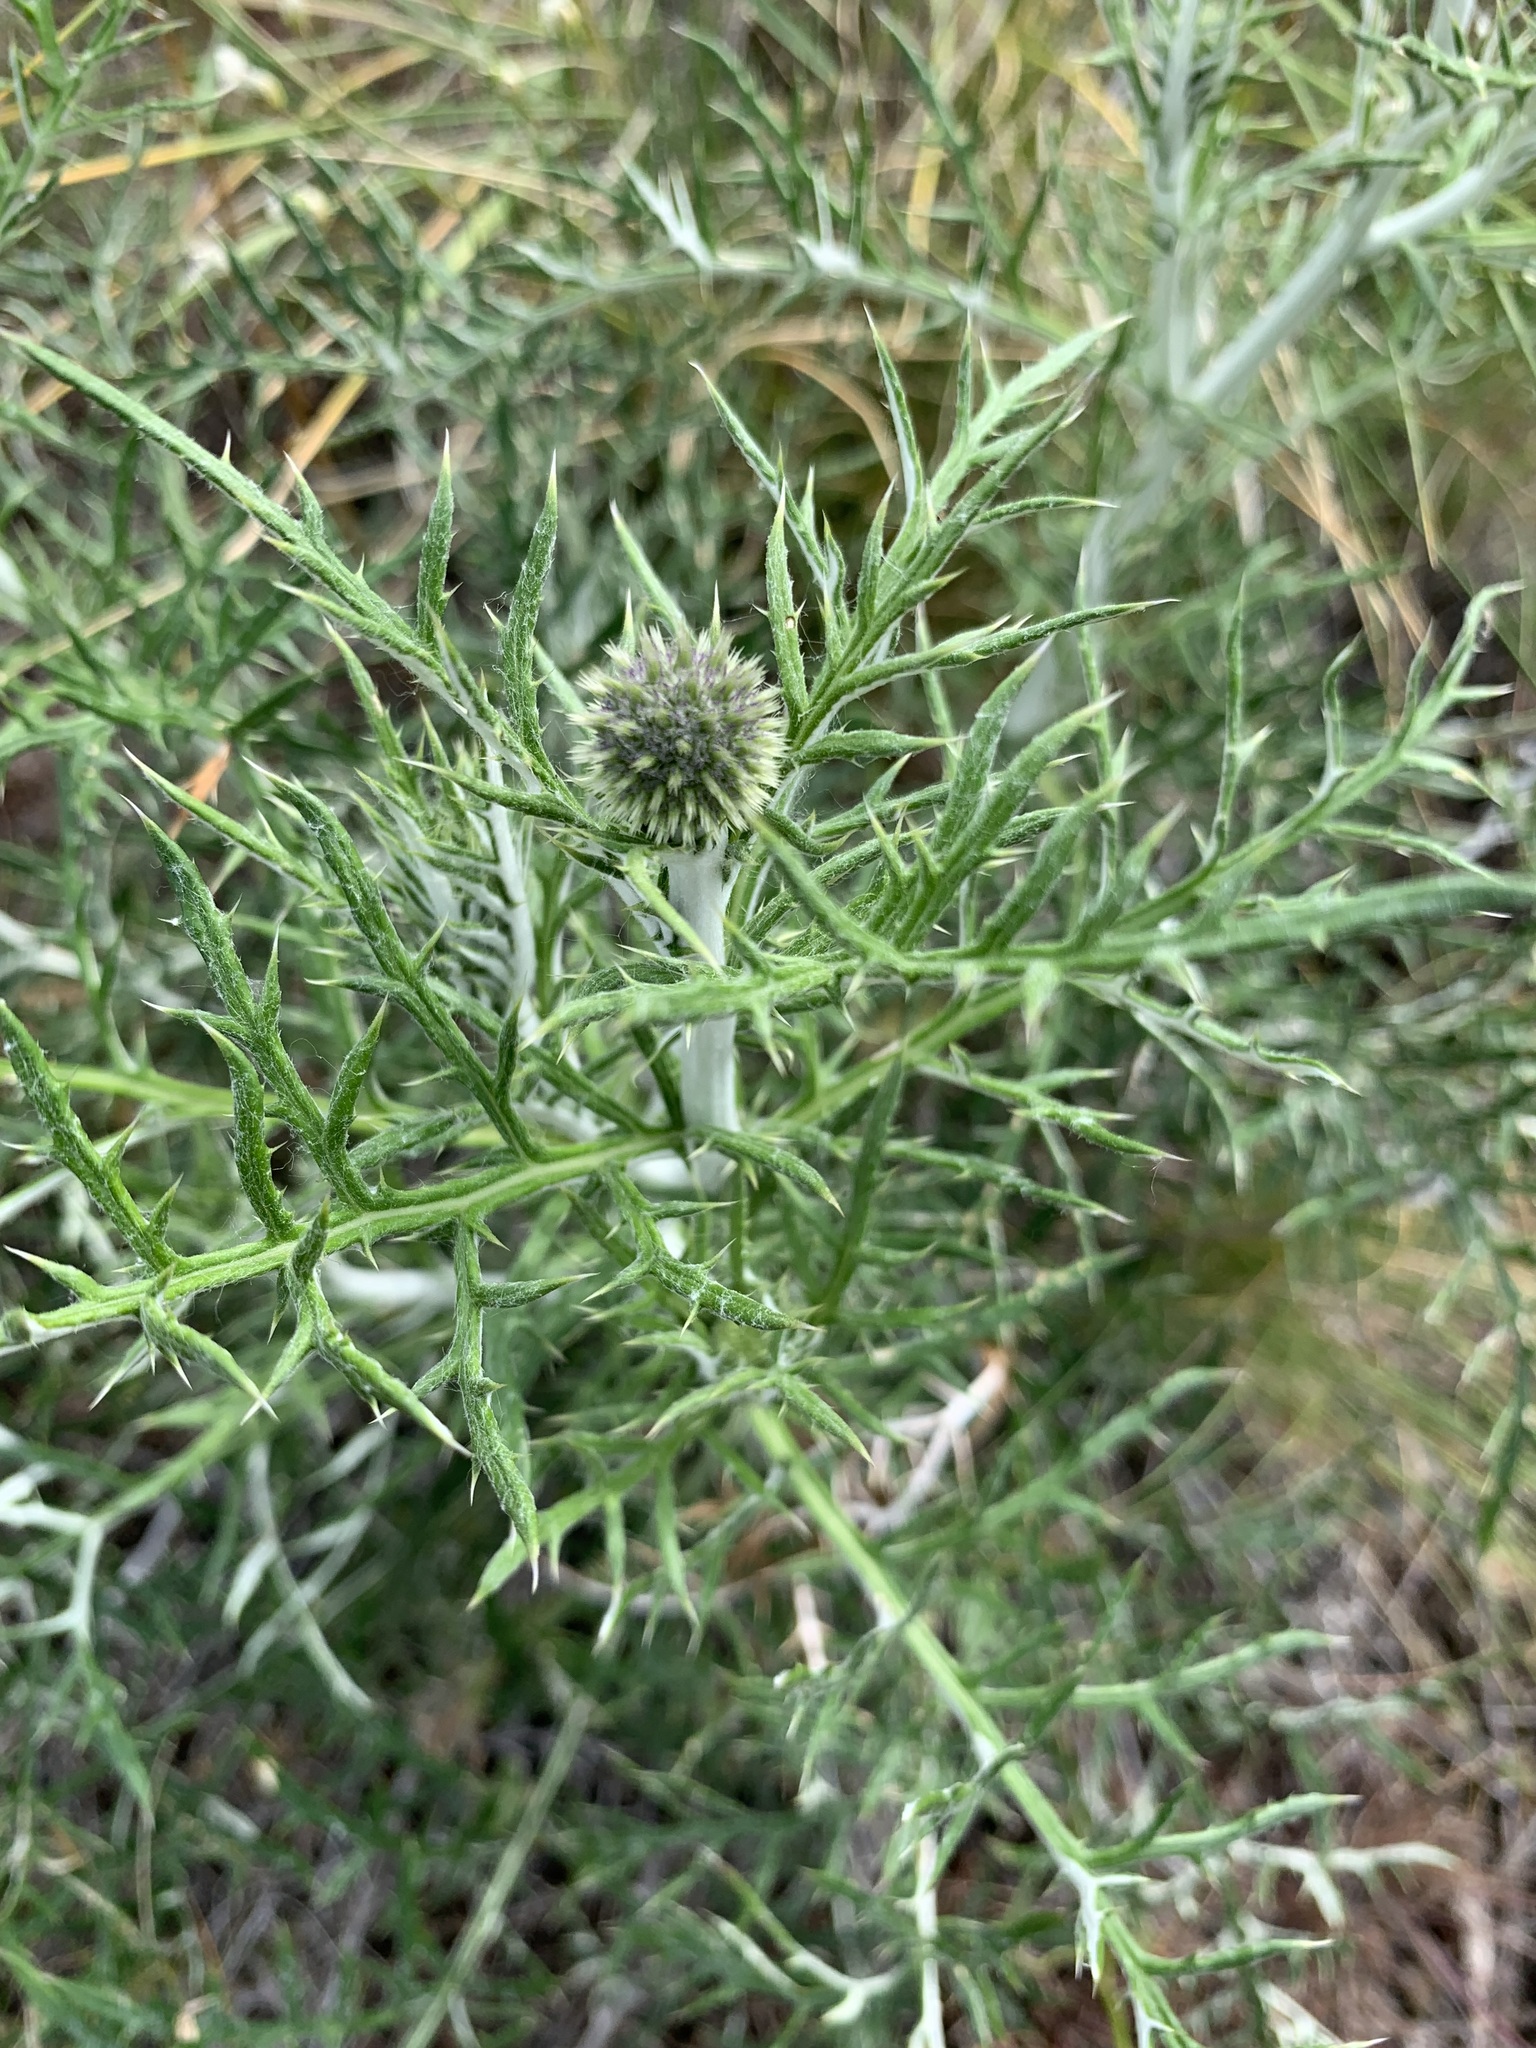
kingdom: Plantae
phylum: Tracheophyta
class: Magnoliopsida
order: Asterales
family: Asteraceae
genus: Echinops
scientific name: Echinops ritro
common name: Globe thistle
